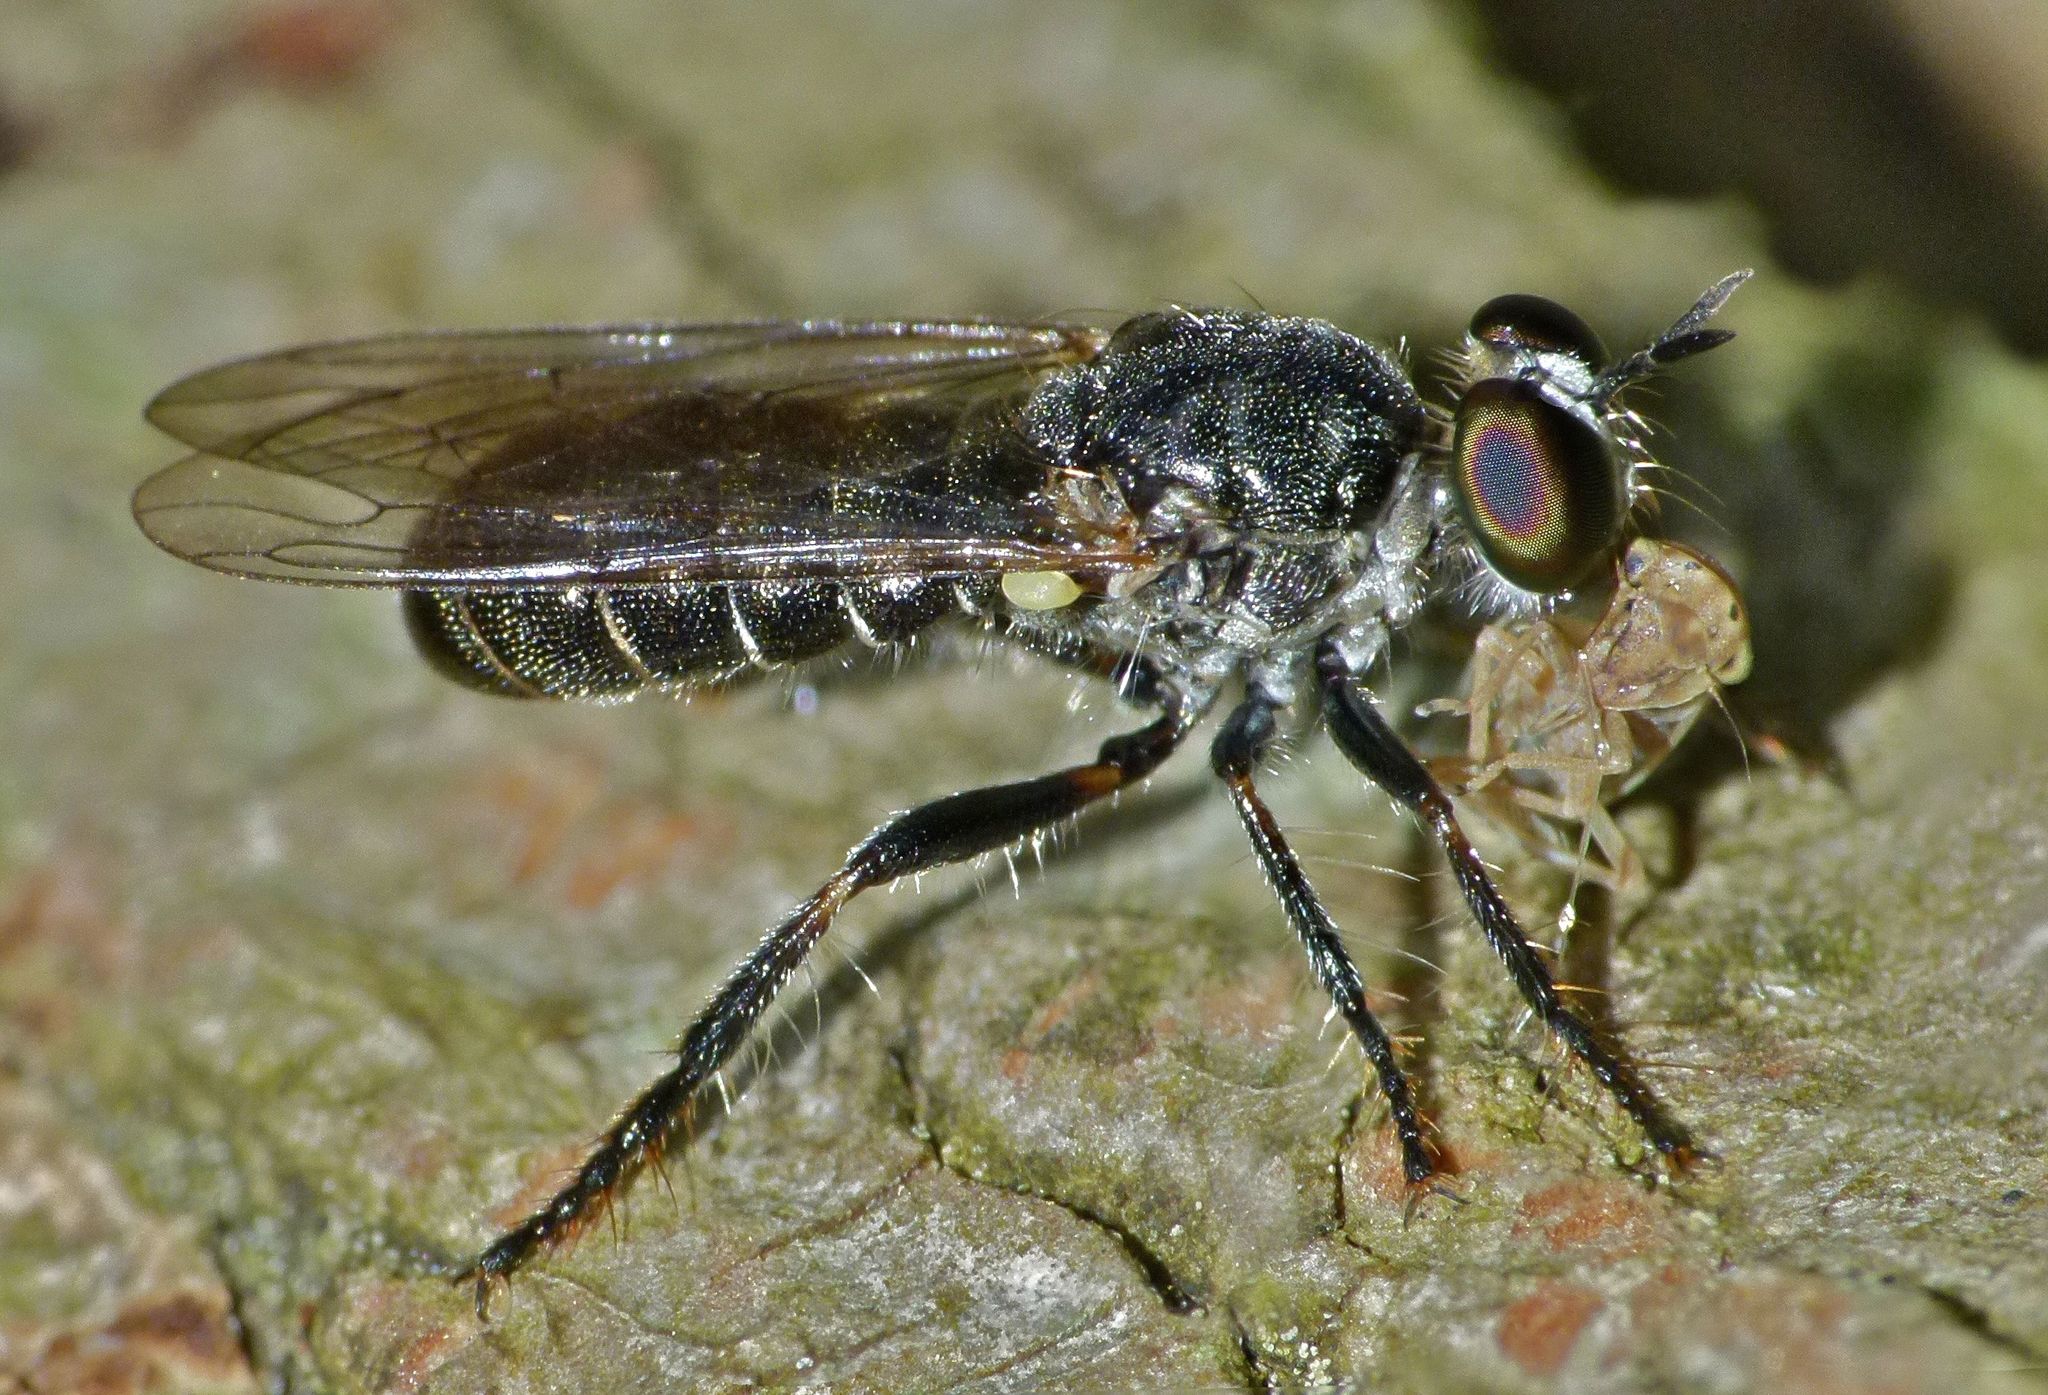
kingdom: Animalia
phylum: Arthropoda
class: Insecta
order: Diptera
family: Asilidae
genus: Atomosia
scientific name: Atomosia puella
